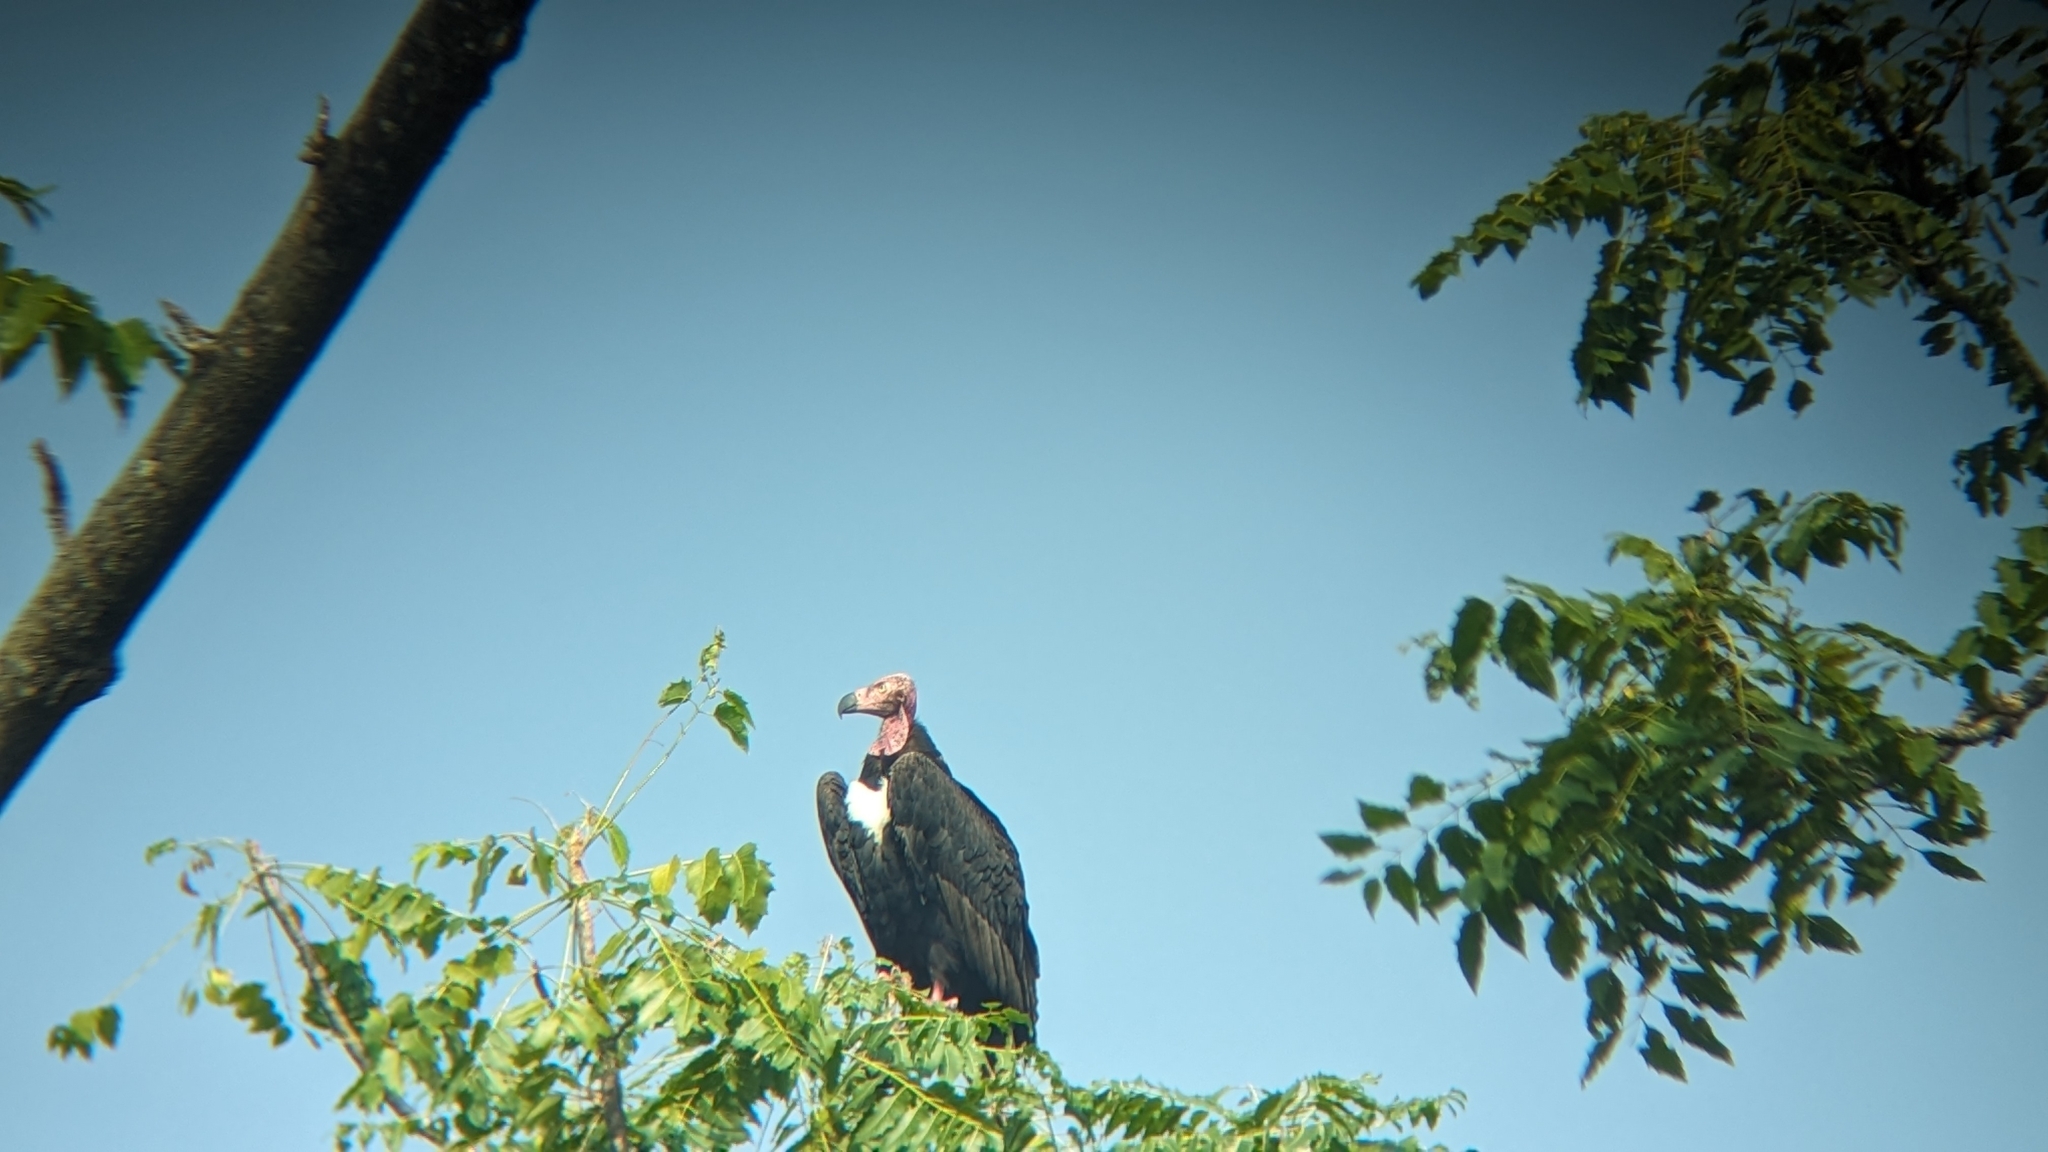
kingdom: Animalia
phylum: Chordata
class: Aves
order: Accipitriformes
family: Accipitridae
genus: Sarcogyps
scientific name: Sarcogyps calvus
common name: Red-headed vulture
